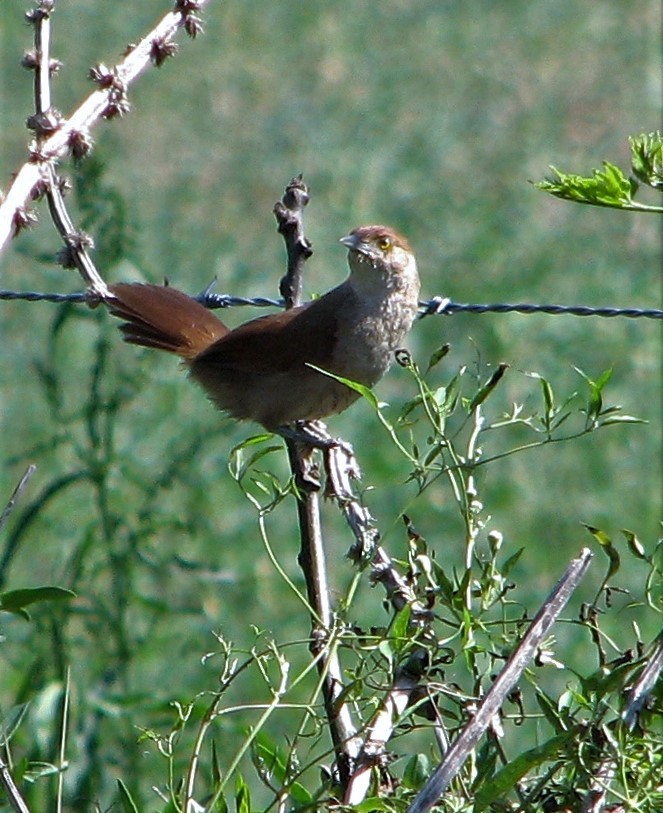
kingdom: Animalia
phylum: Chordata
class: Aves
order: Passeriformes
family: Furnariidae
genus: Phacellodomus
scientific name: Phacellodomus striaticollis
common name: Freckle-breasted thornbird
